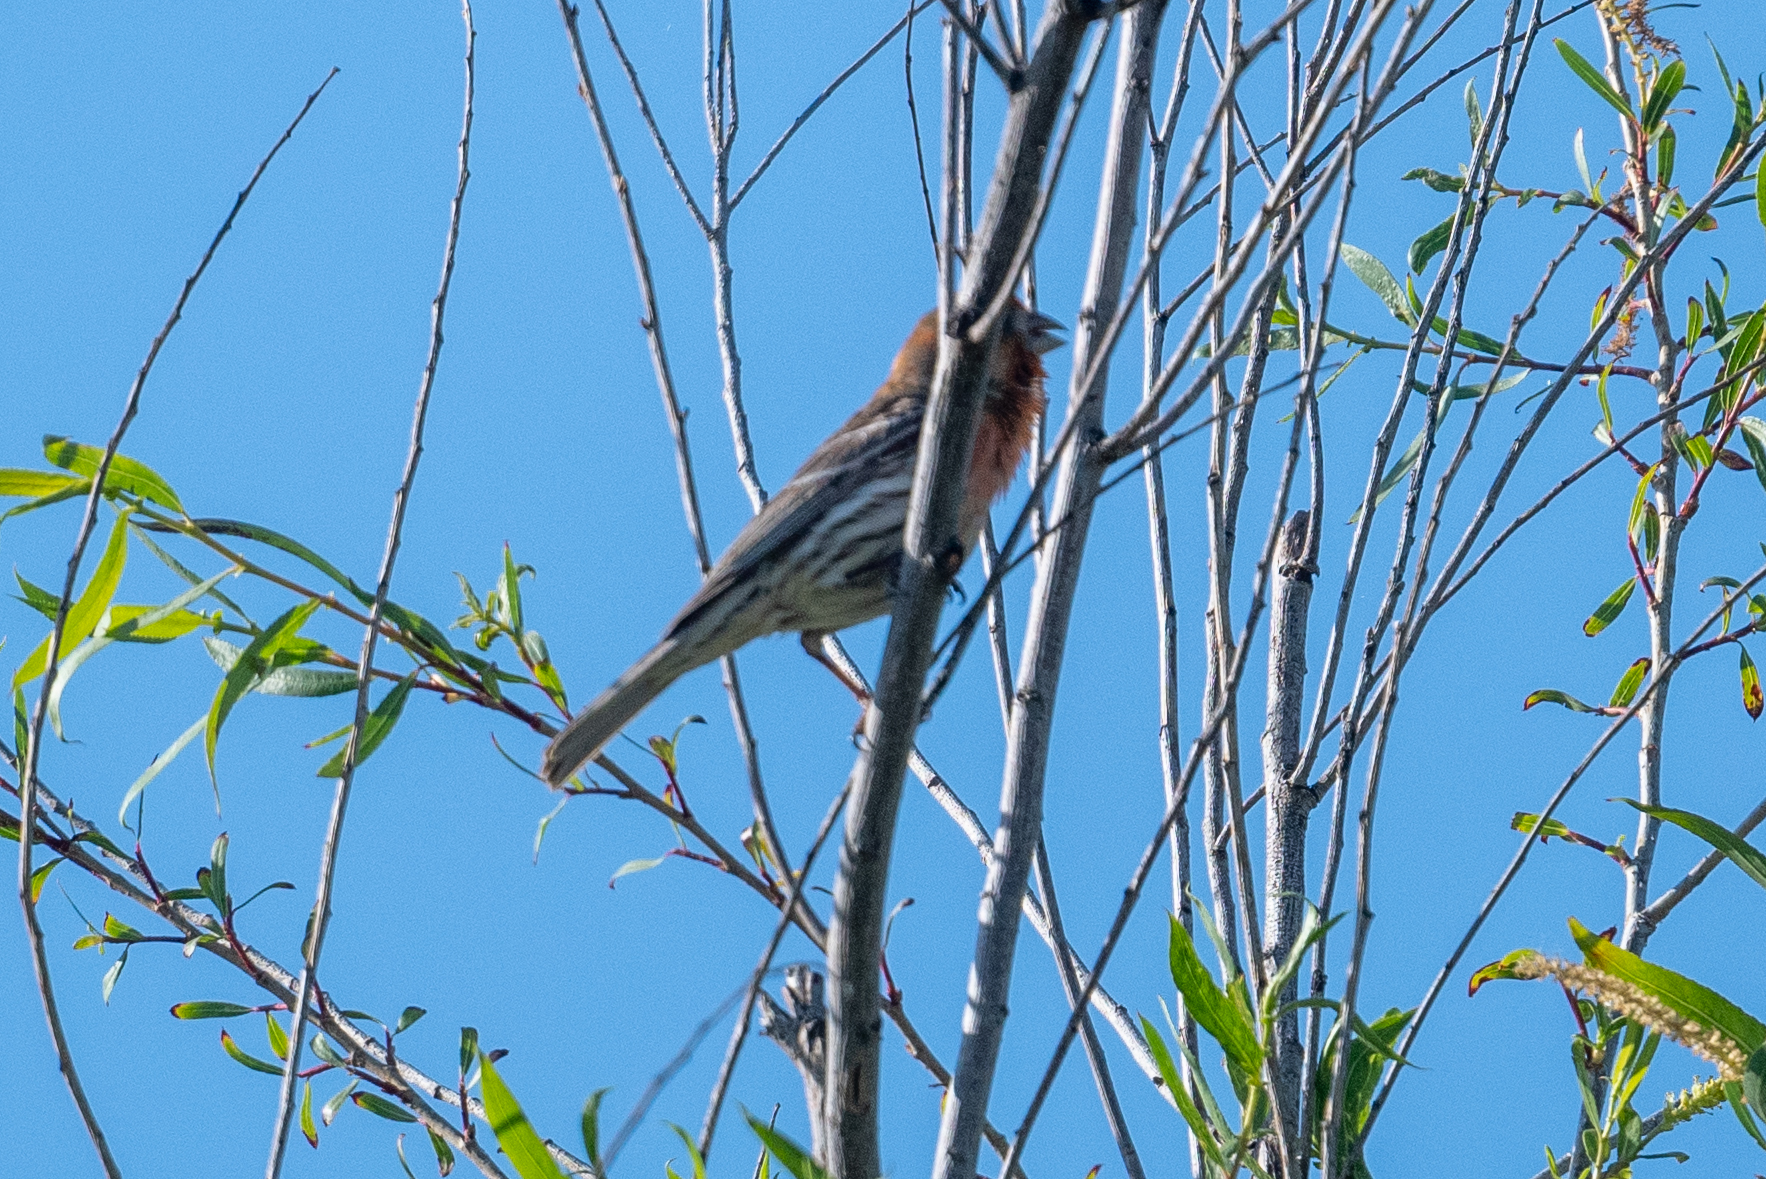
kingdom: Animalia
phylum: Chordata
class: Aves
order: Passeriformes
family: Fringillidae
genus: Haemorhous
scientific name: Haemorhous mexicanus
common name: House finch
